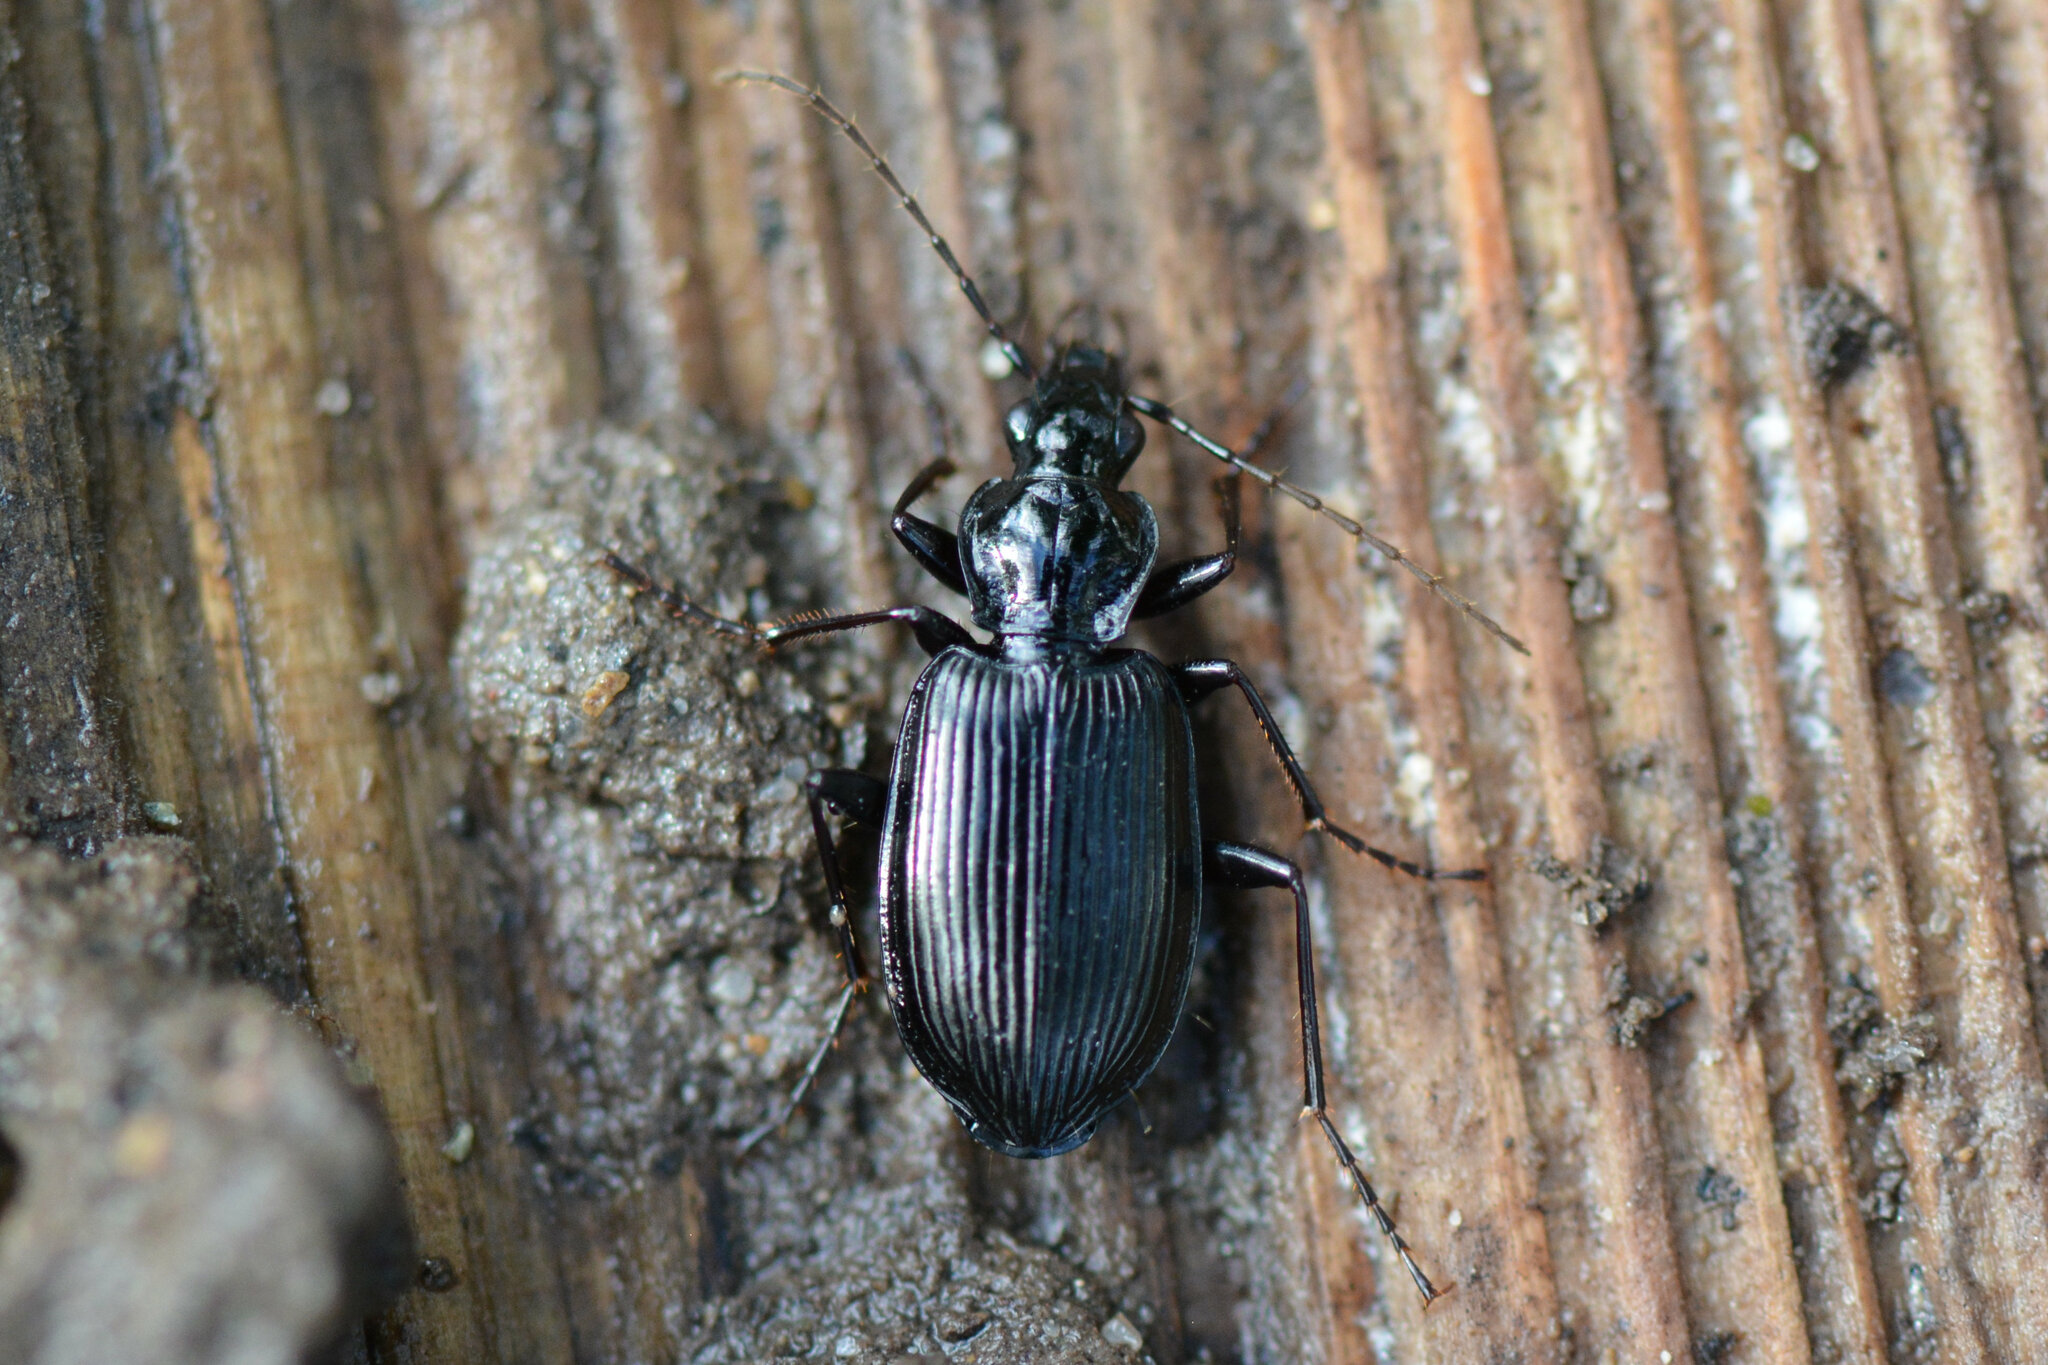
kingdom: Animalia
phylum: Arthropoda
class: Insecta
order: Coleoptera
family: Carabidae
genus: Platynus
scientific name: Platynus assimilis
